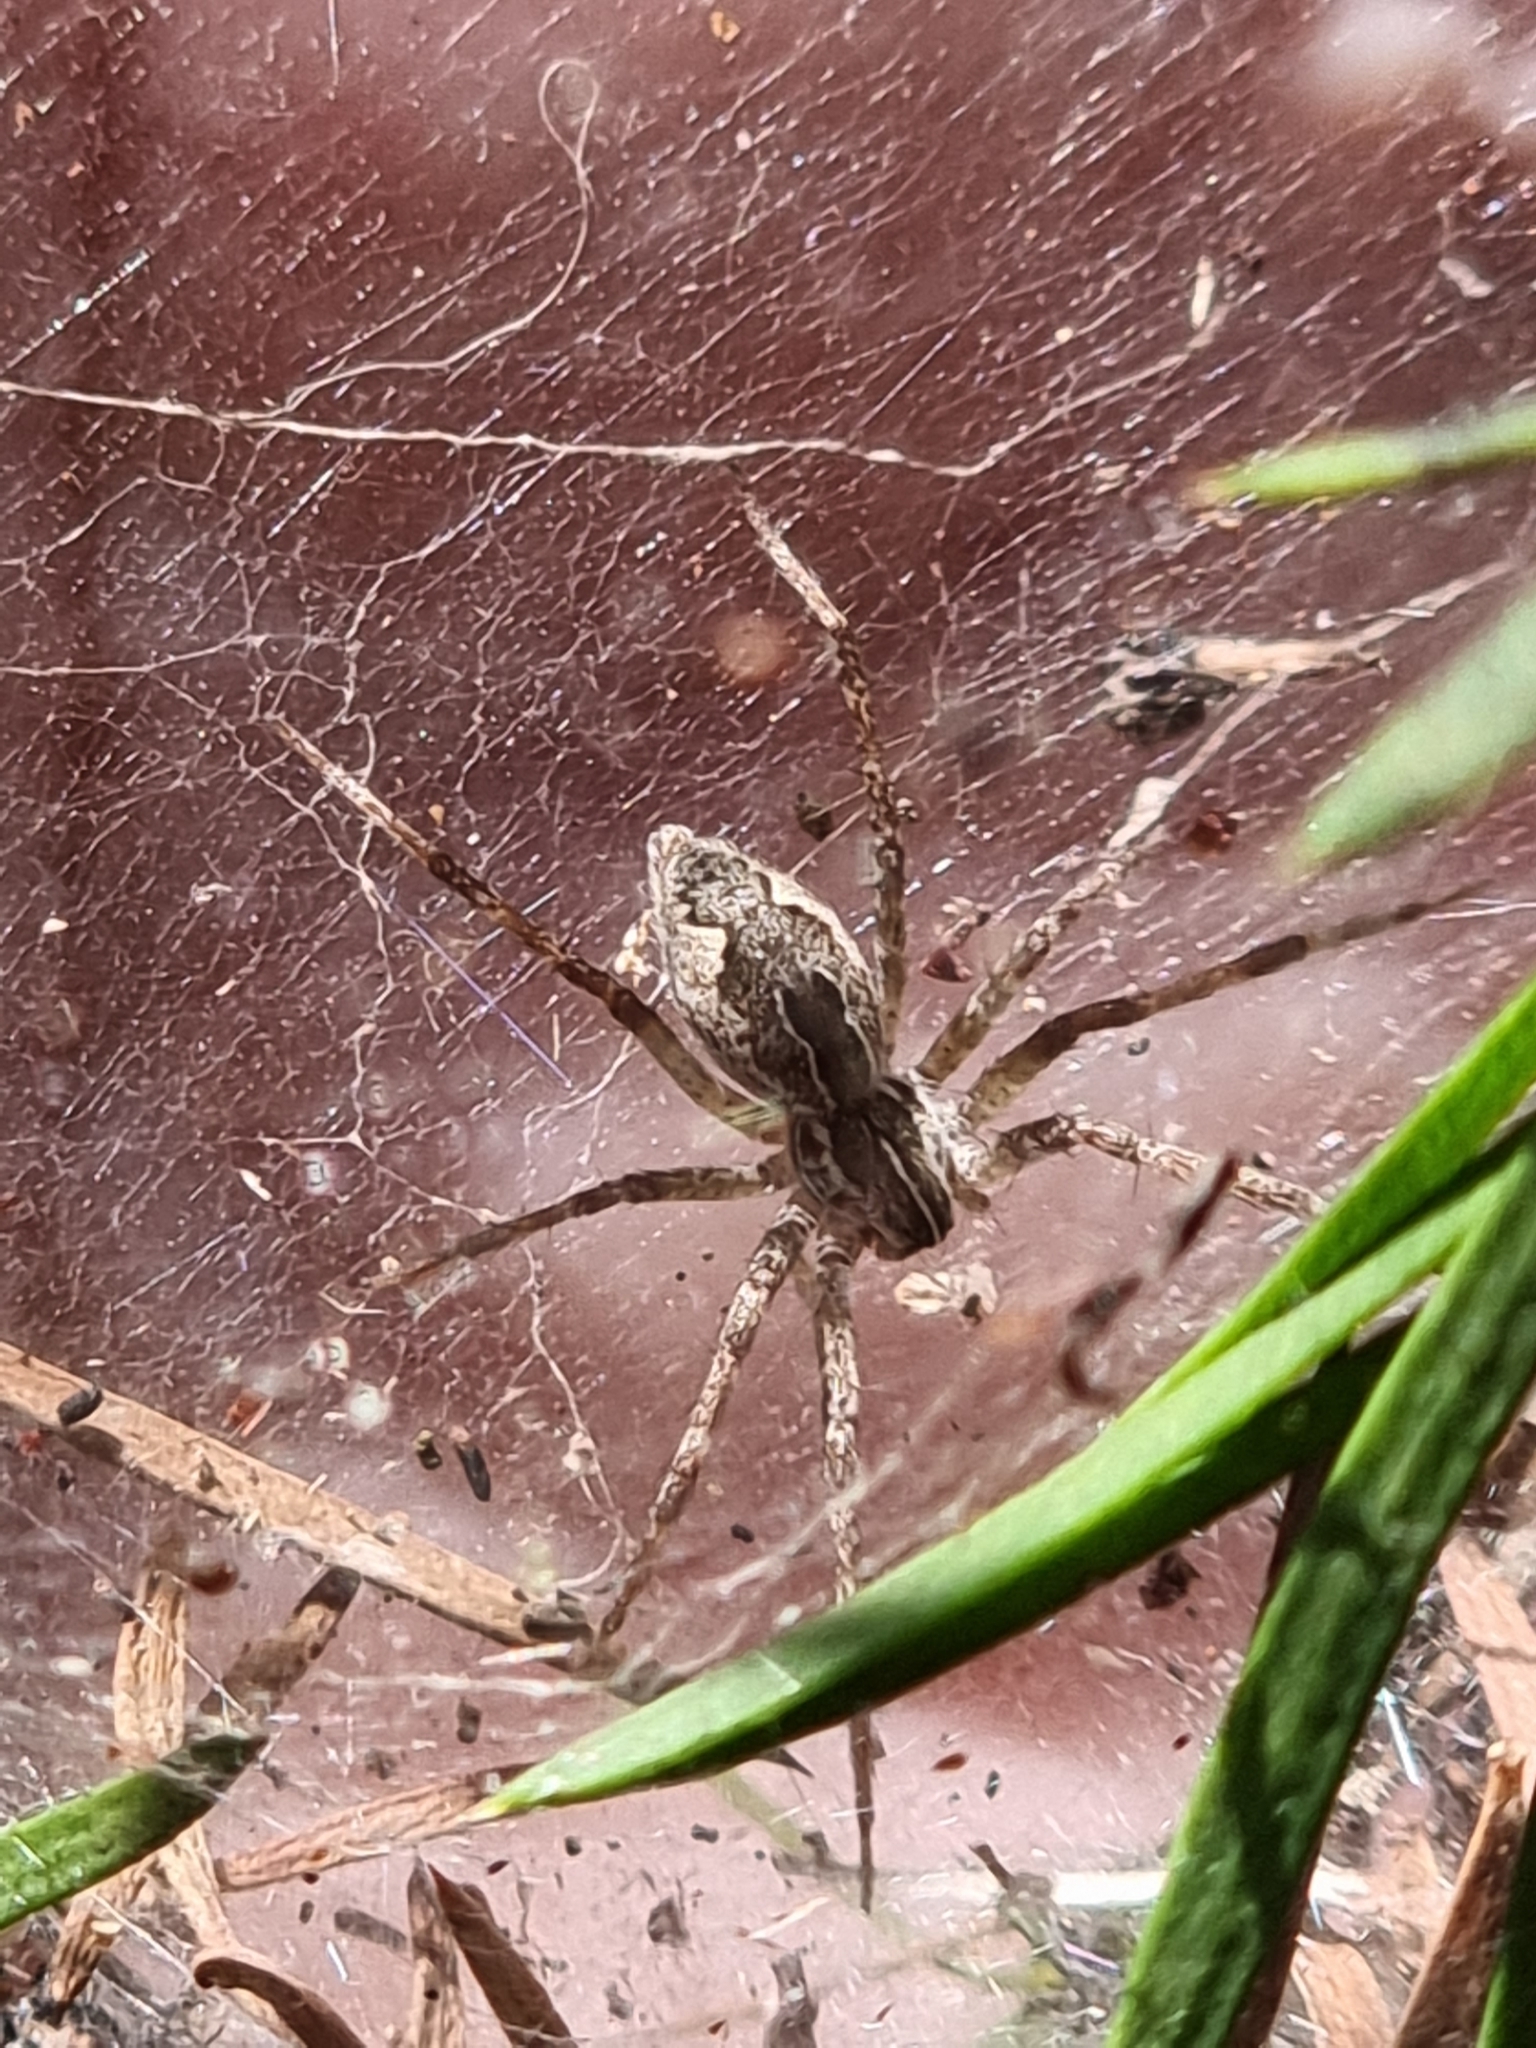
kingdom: Animalia
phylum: Arthropoda
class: Arachnida
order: Araneae
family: Pisauridae
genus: Dendrolycosa
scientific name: Dendrolycosa icadia
